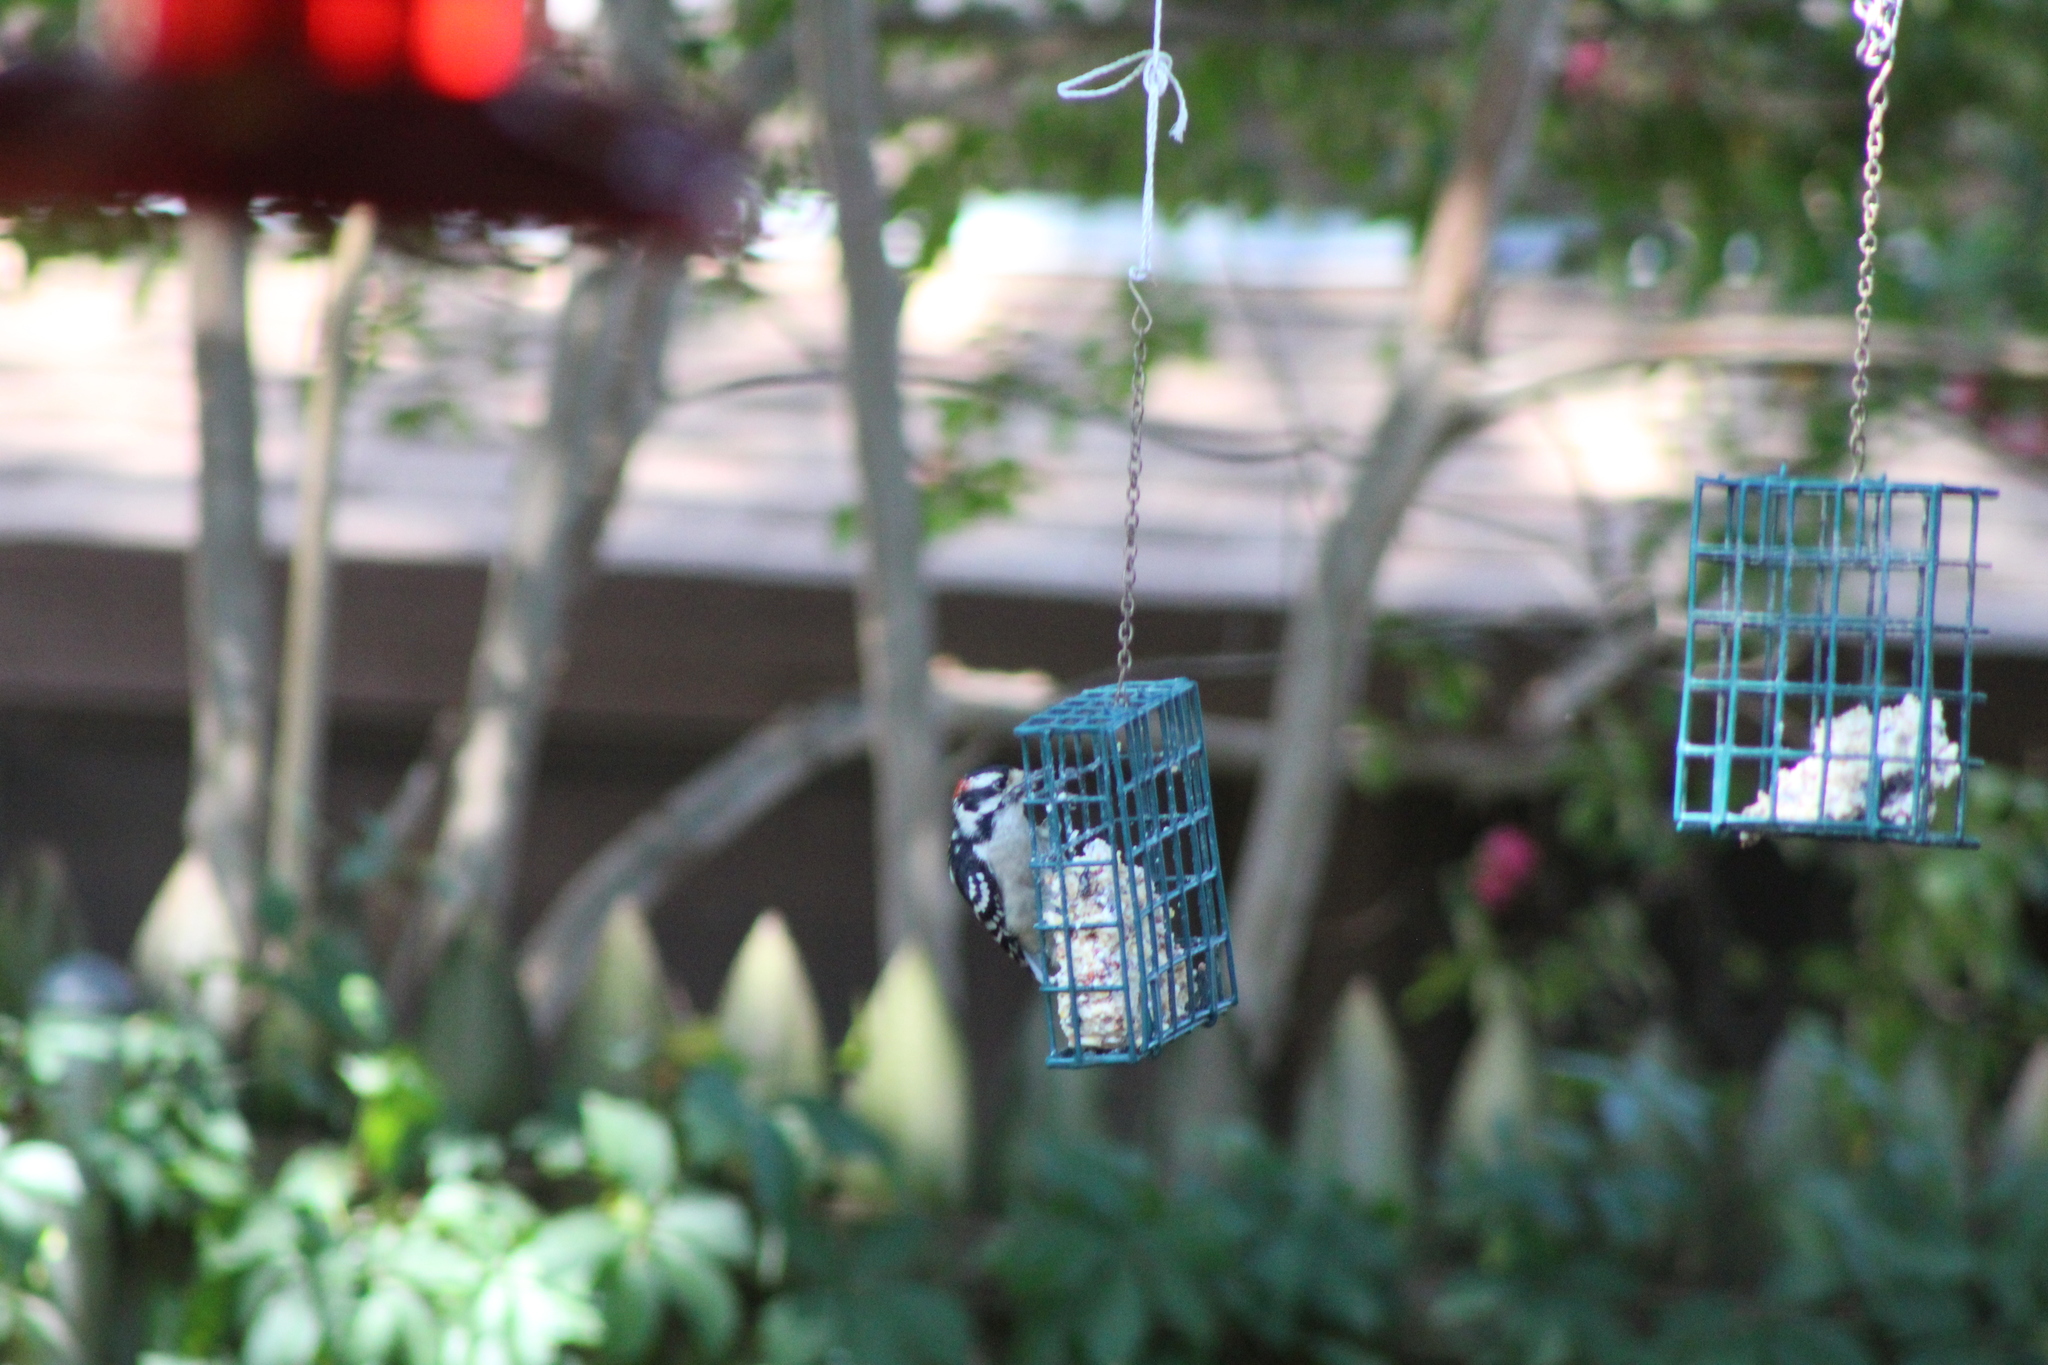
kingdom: Animalia
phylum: Chordata
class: Aves
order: Piciformes
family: Picidae
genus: Dryobates
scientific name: Dryobates pubescens
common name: Downy woodpecker
